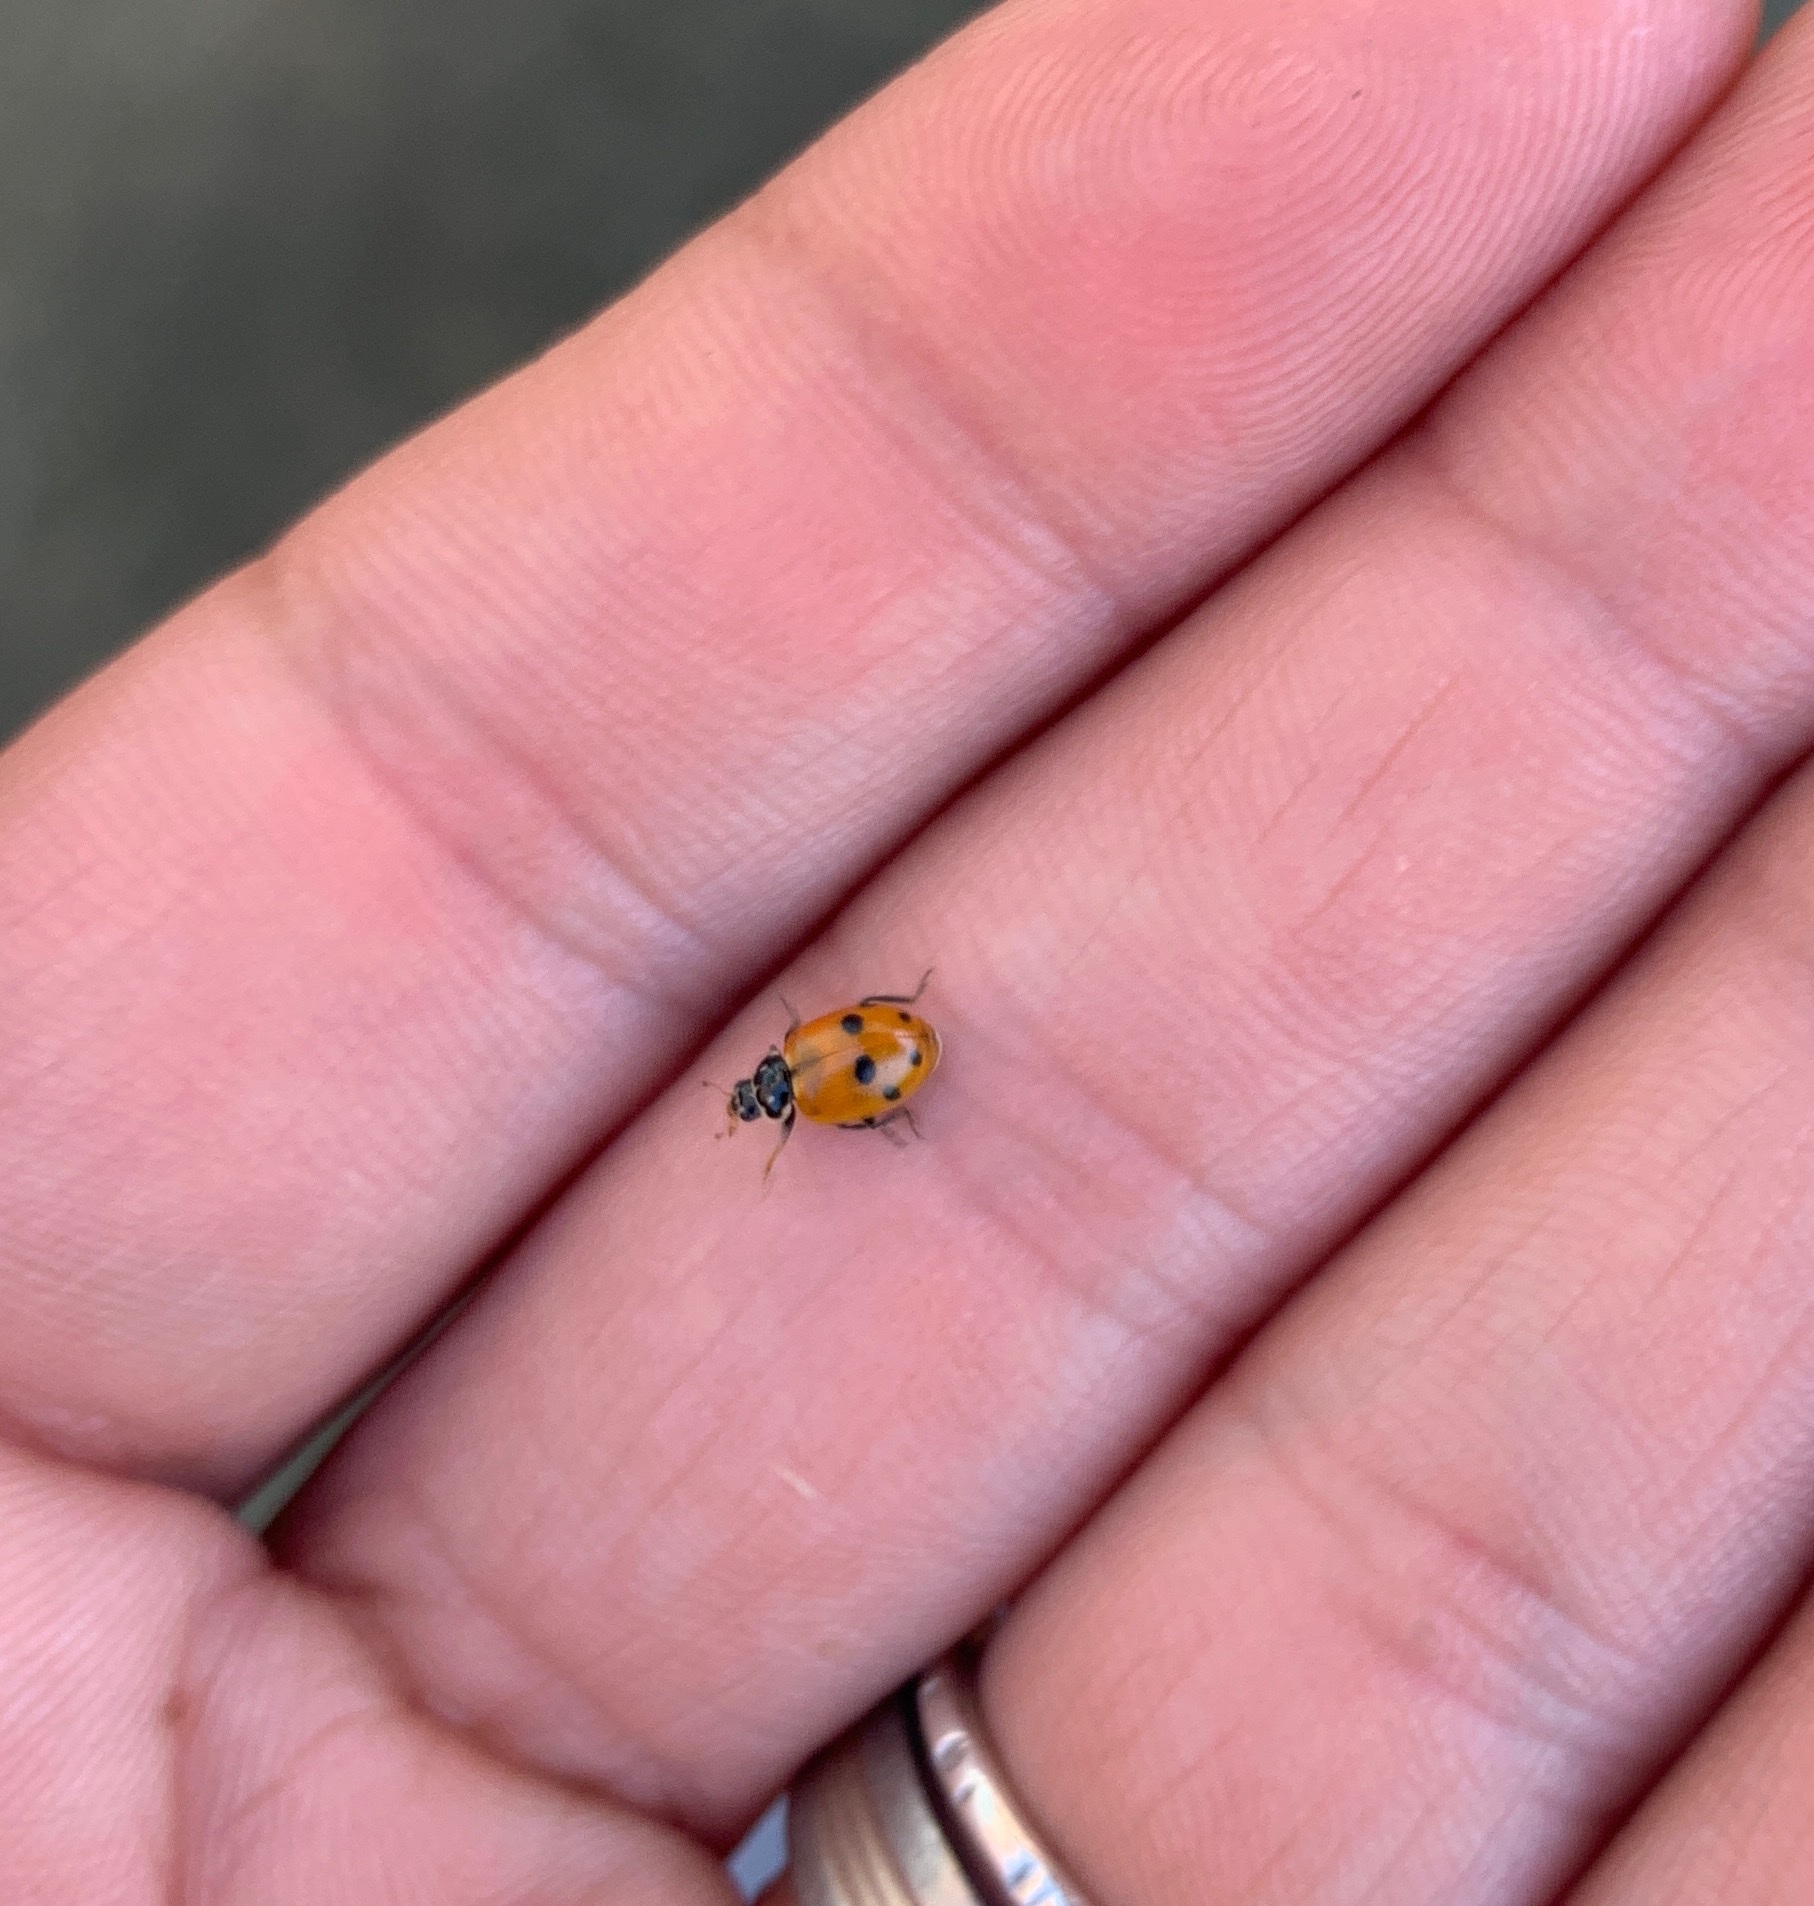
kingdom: Animalia
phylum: Arthropoda
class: Insecta
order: Coleoptera
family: Coccinellidae
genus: Hippodamia
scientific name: Hippodamia variegata
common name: Ladybird beetle
